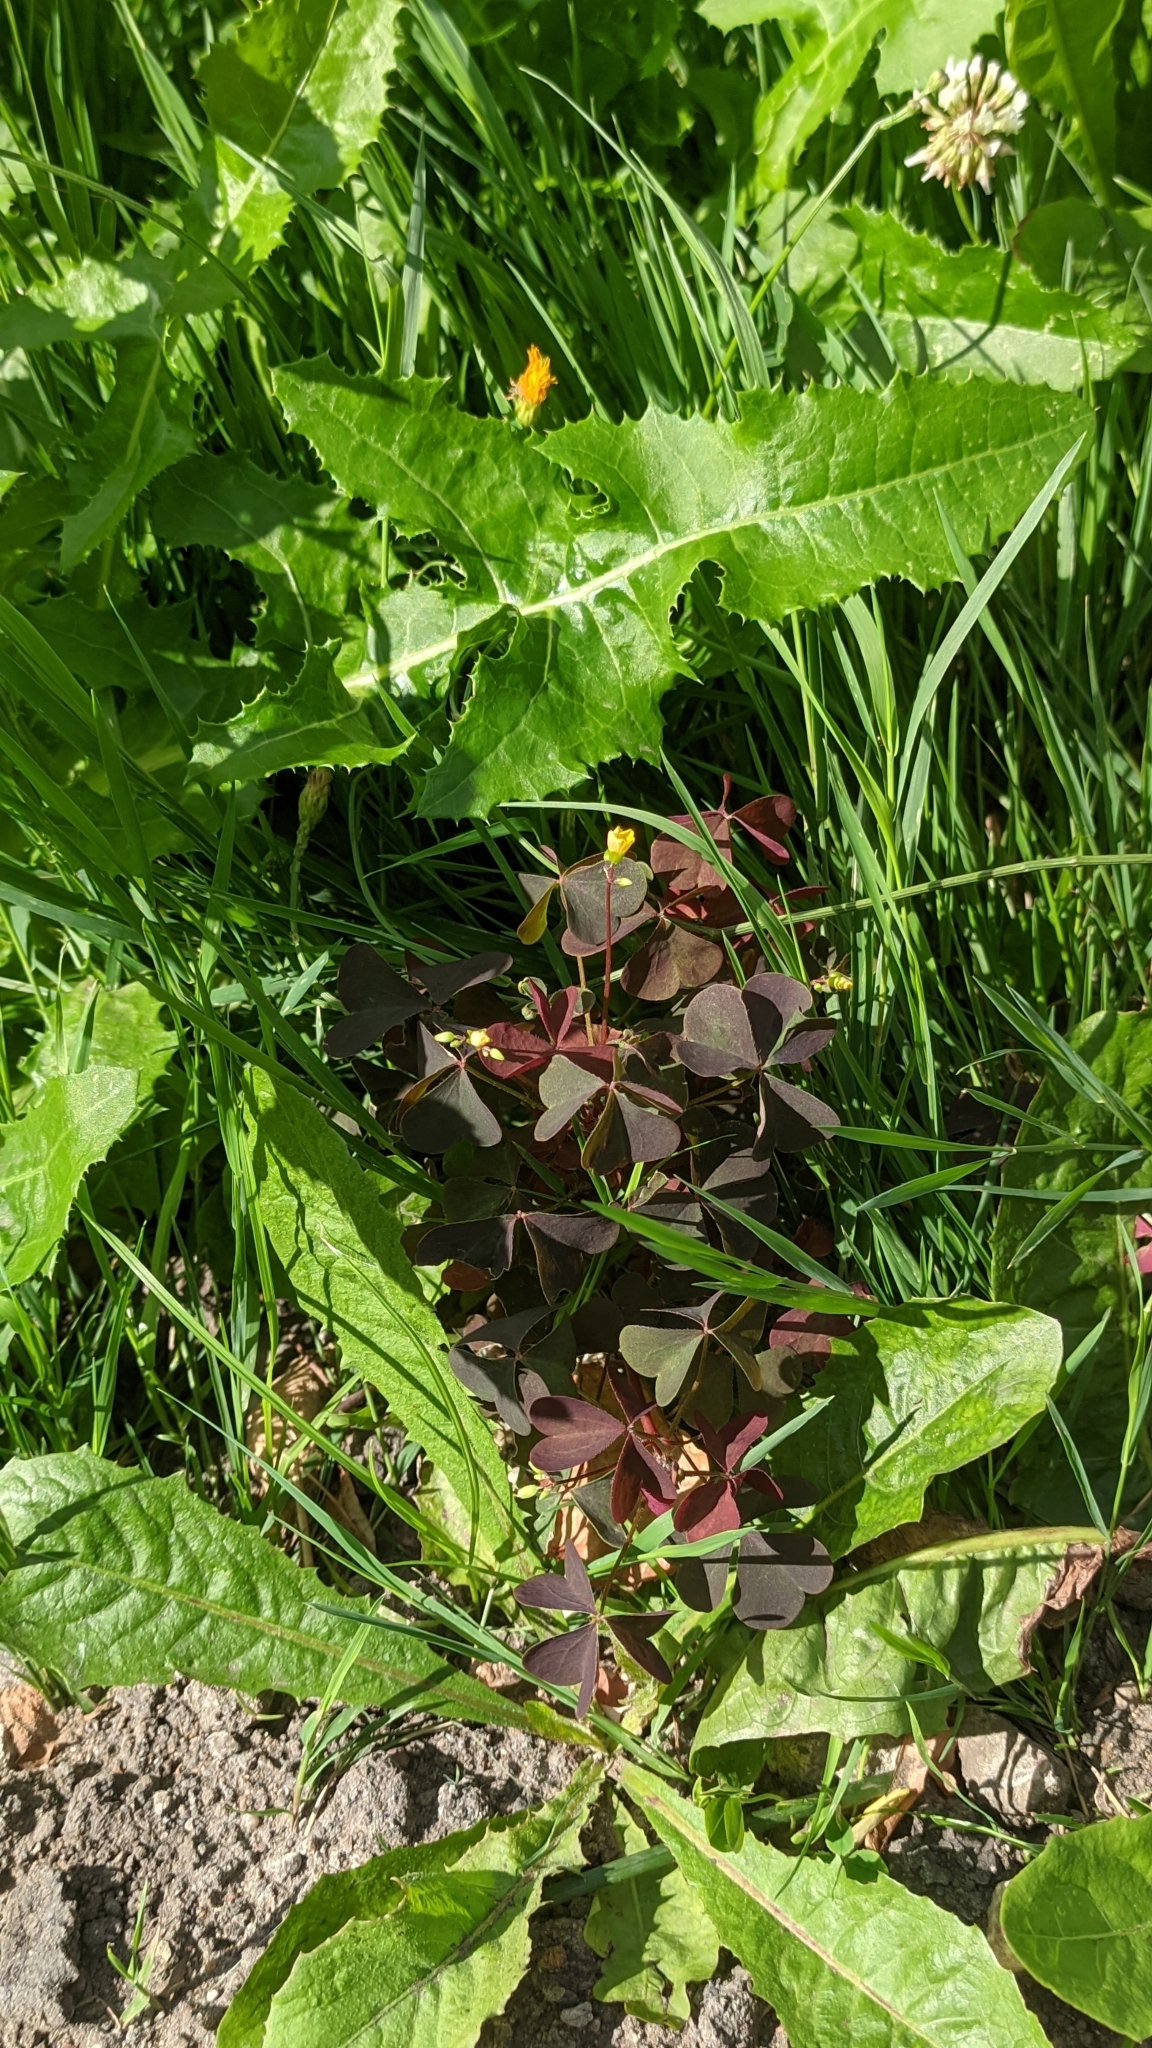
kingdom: Plantae
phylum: Tracheophyta
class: Magnoliopsida
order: Oxalidales
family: Oxalidaceae
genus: Oxalis
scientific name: Oxalis stricta
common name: Upright yellow-sorrel
